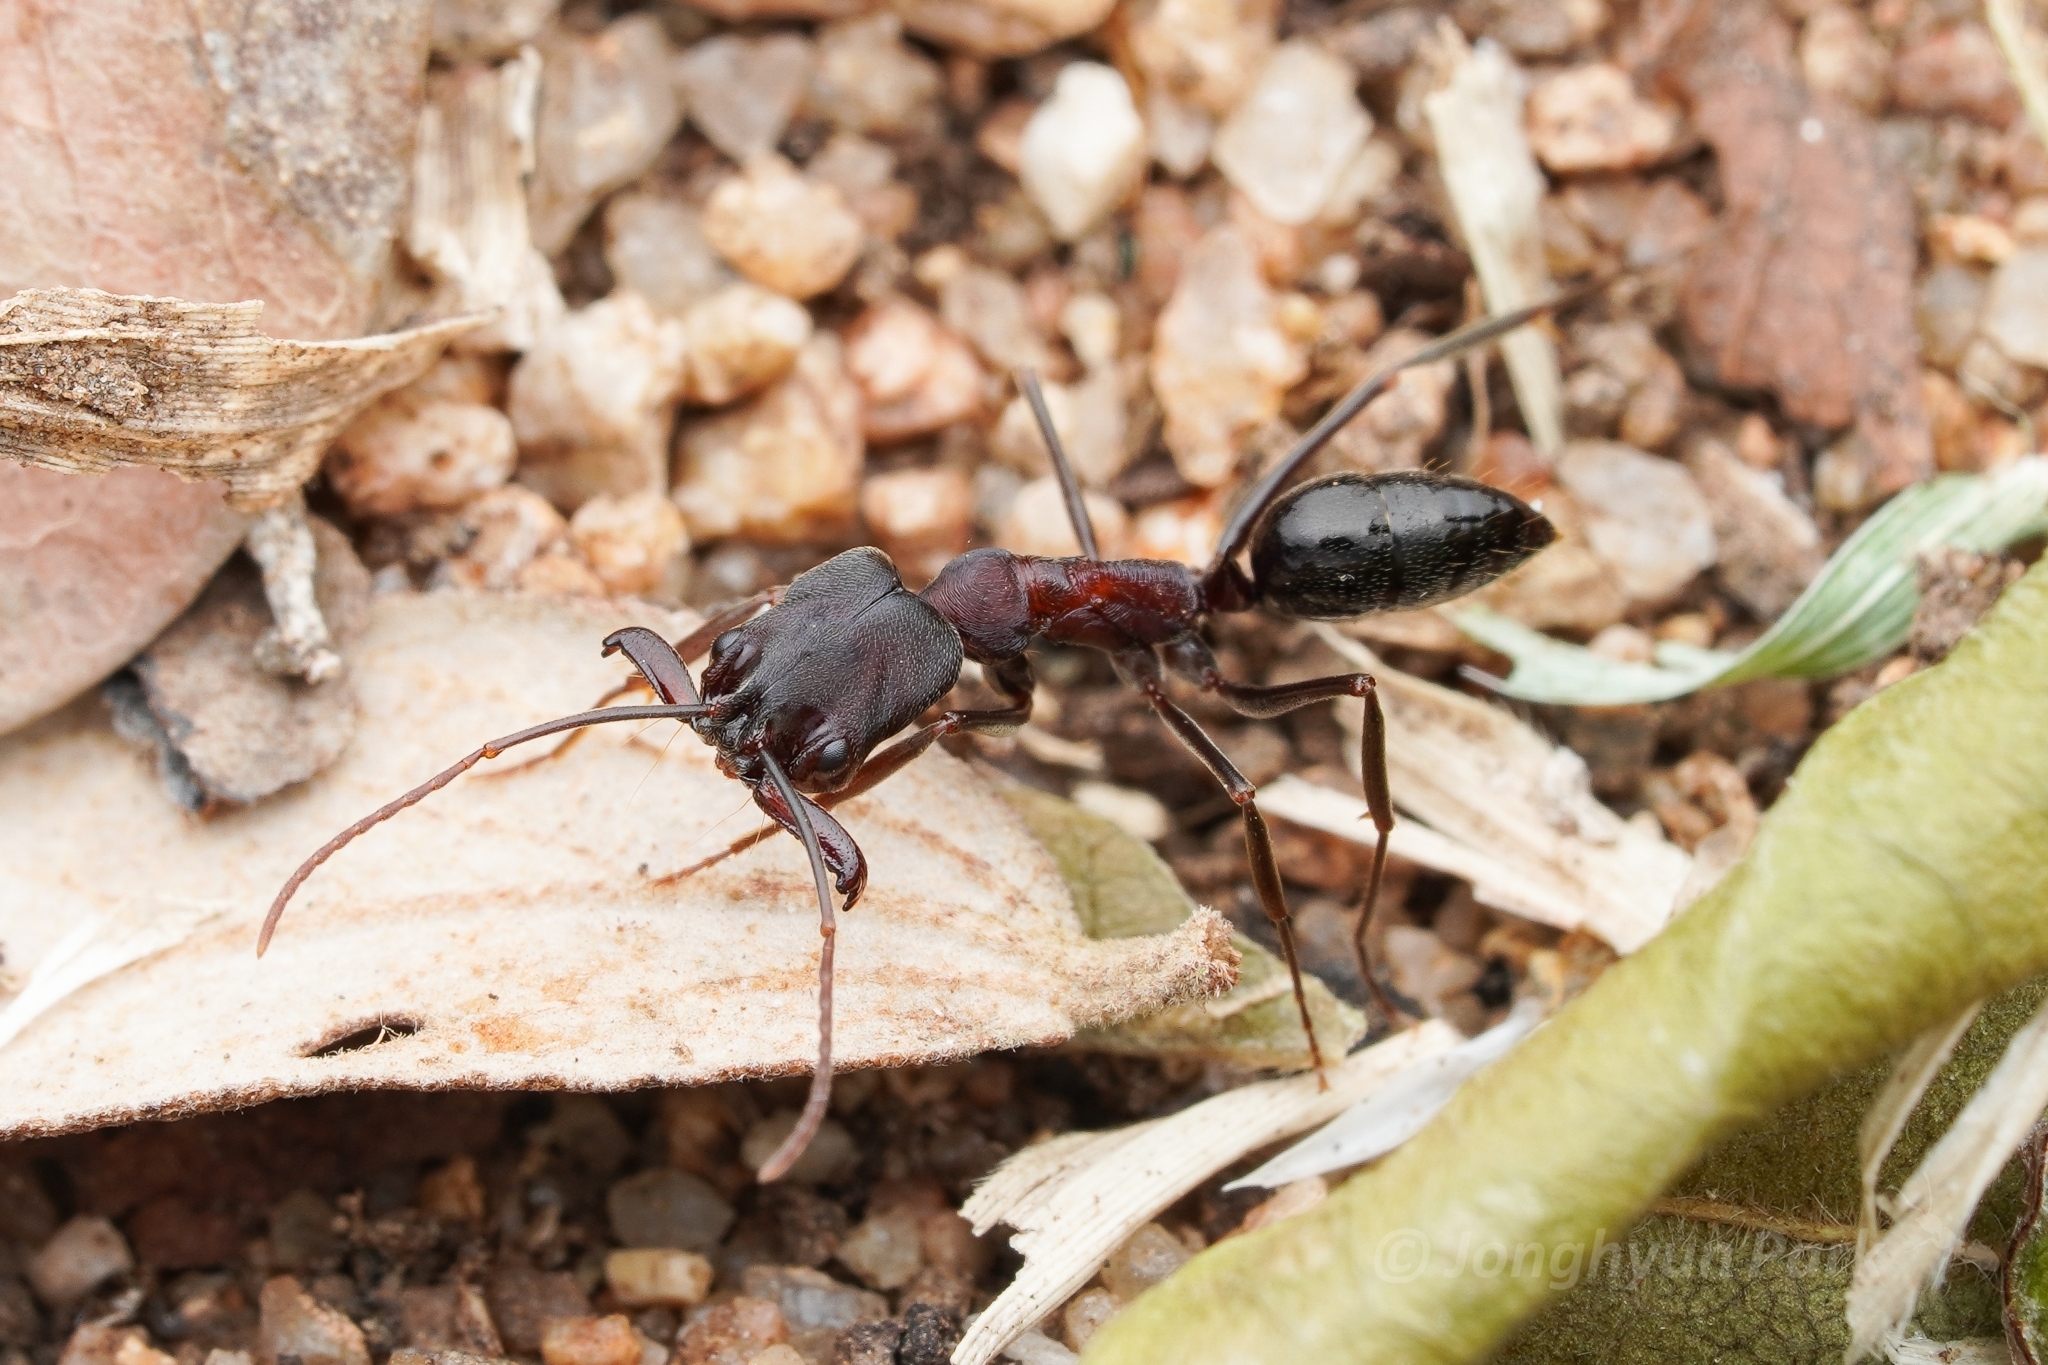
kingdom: Animalia
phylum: Arthropoda
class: Insecta
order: Hymenoptera
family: Formicidae
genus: Odontomachus
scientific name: Odontomachus troglodytes
